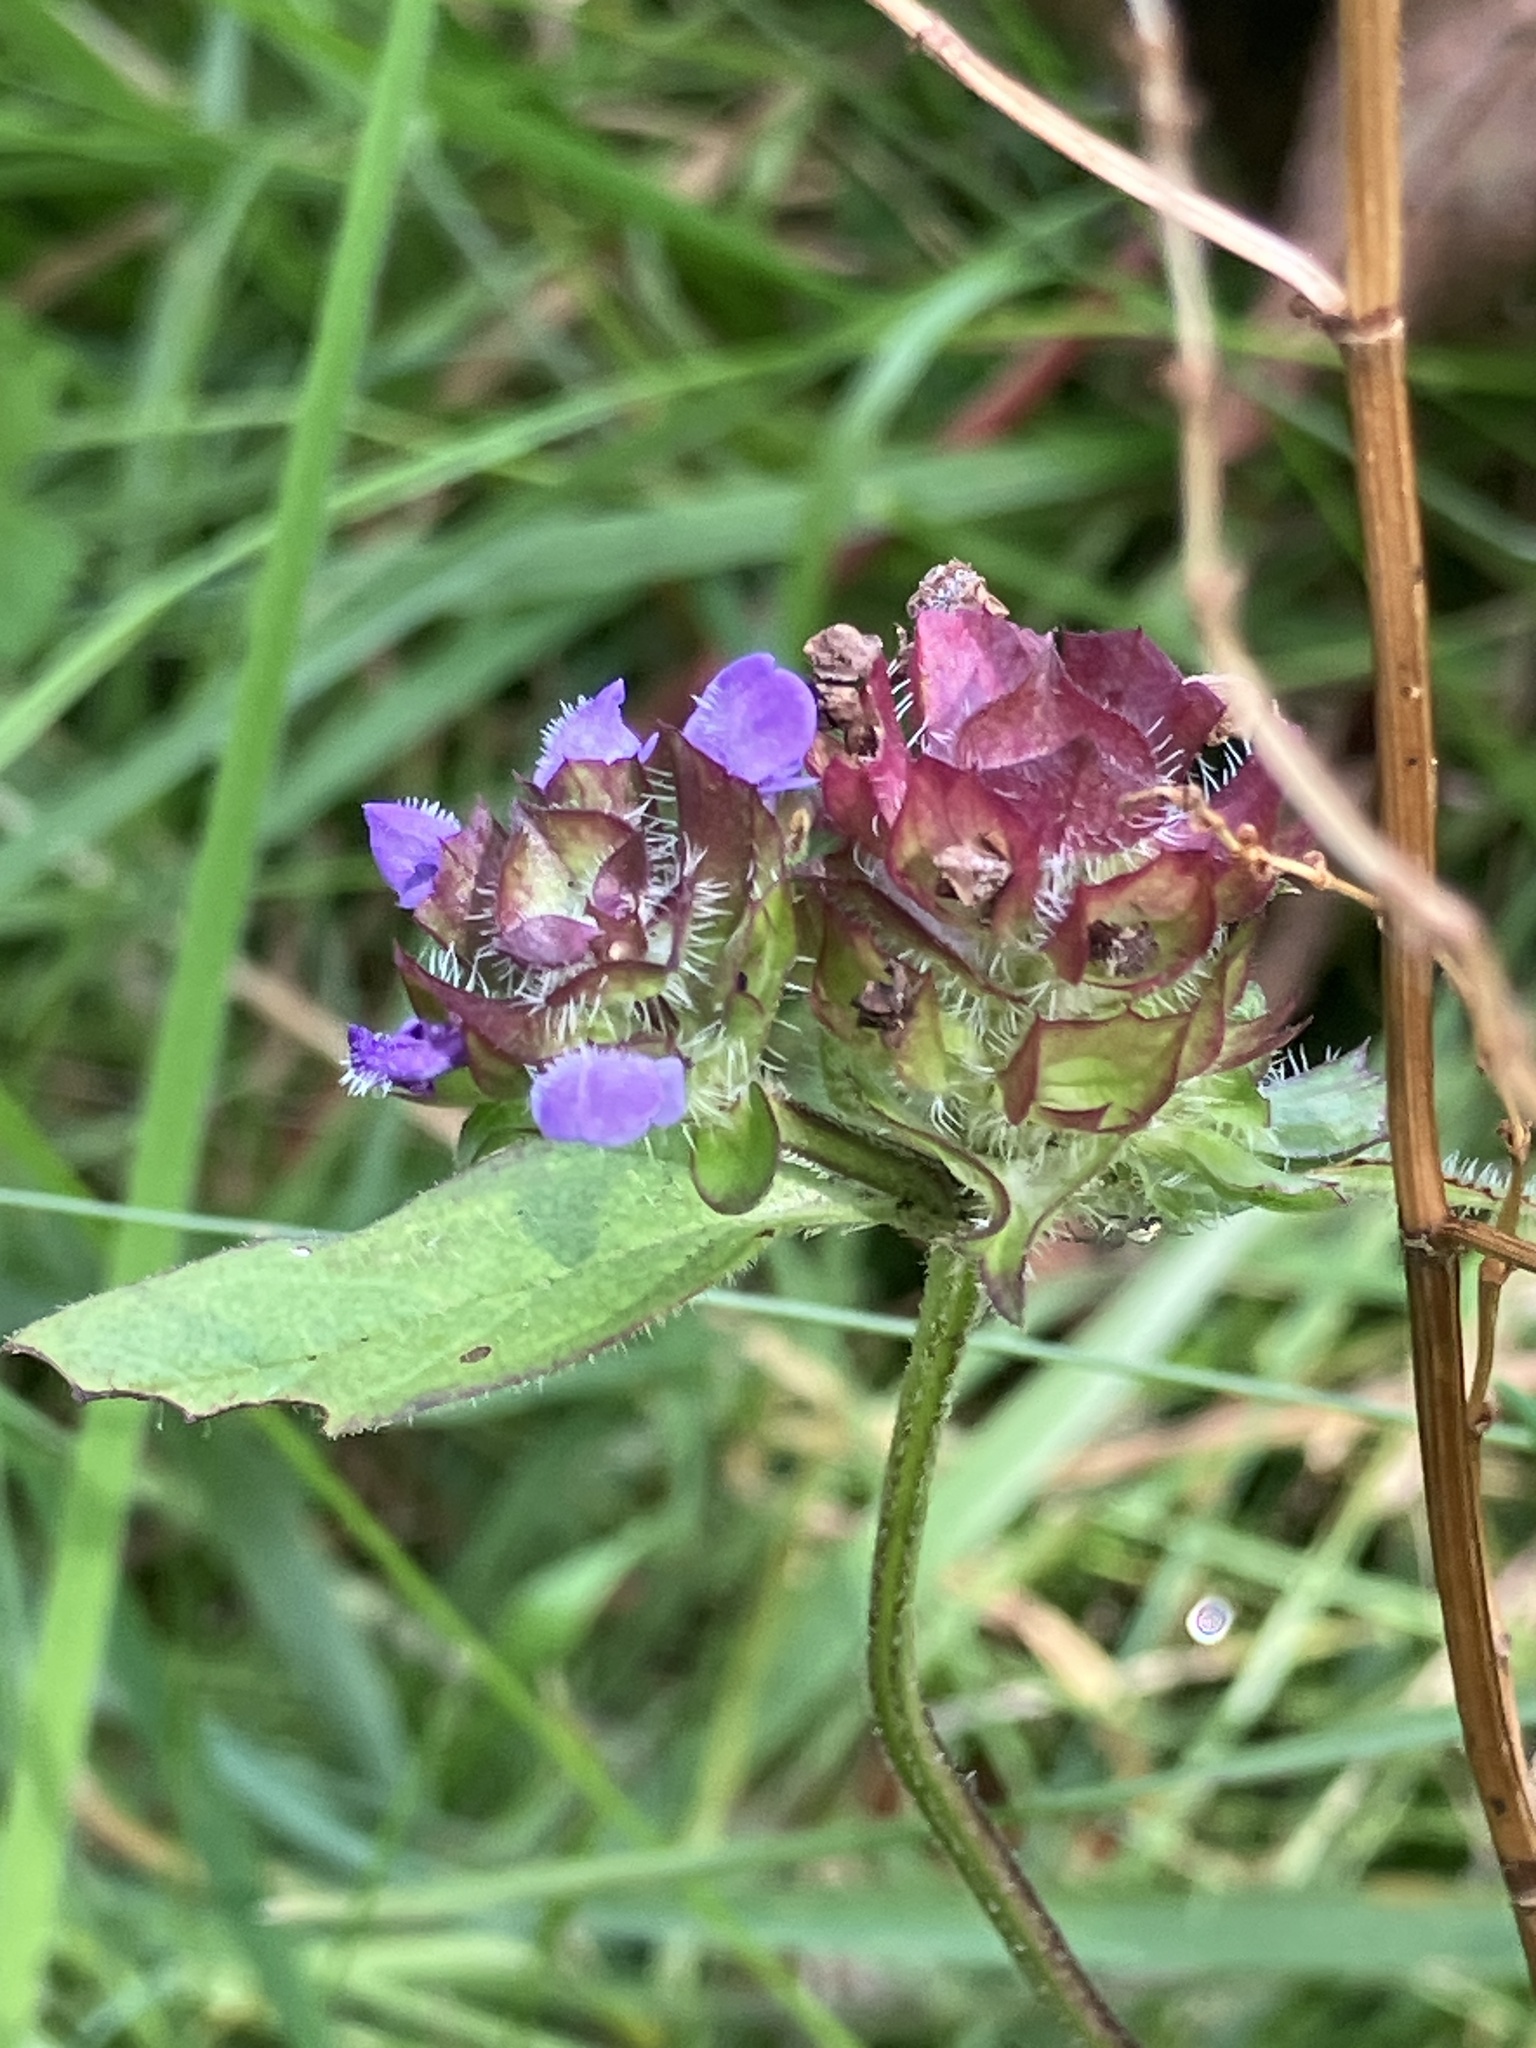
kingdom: Plantae
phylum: Tracheophyta
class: Magnoliopsida
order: Lamiales
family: Lamiaceae
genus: Prunella
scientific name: Prunella vulgaris
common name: Heal-all
